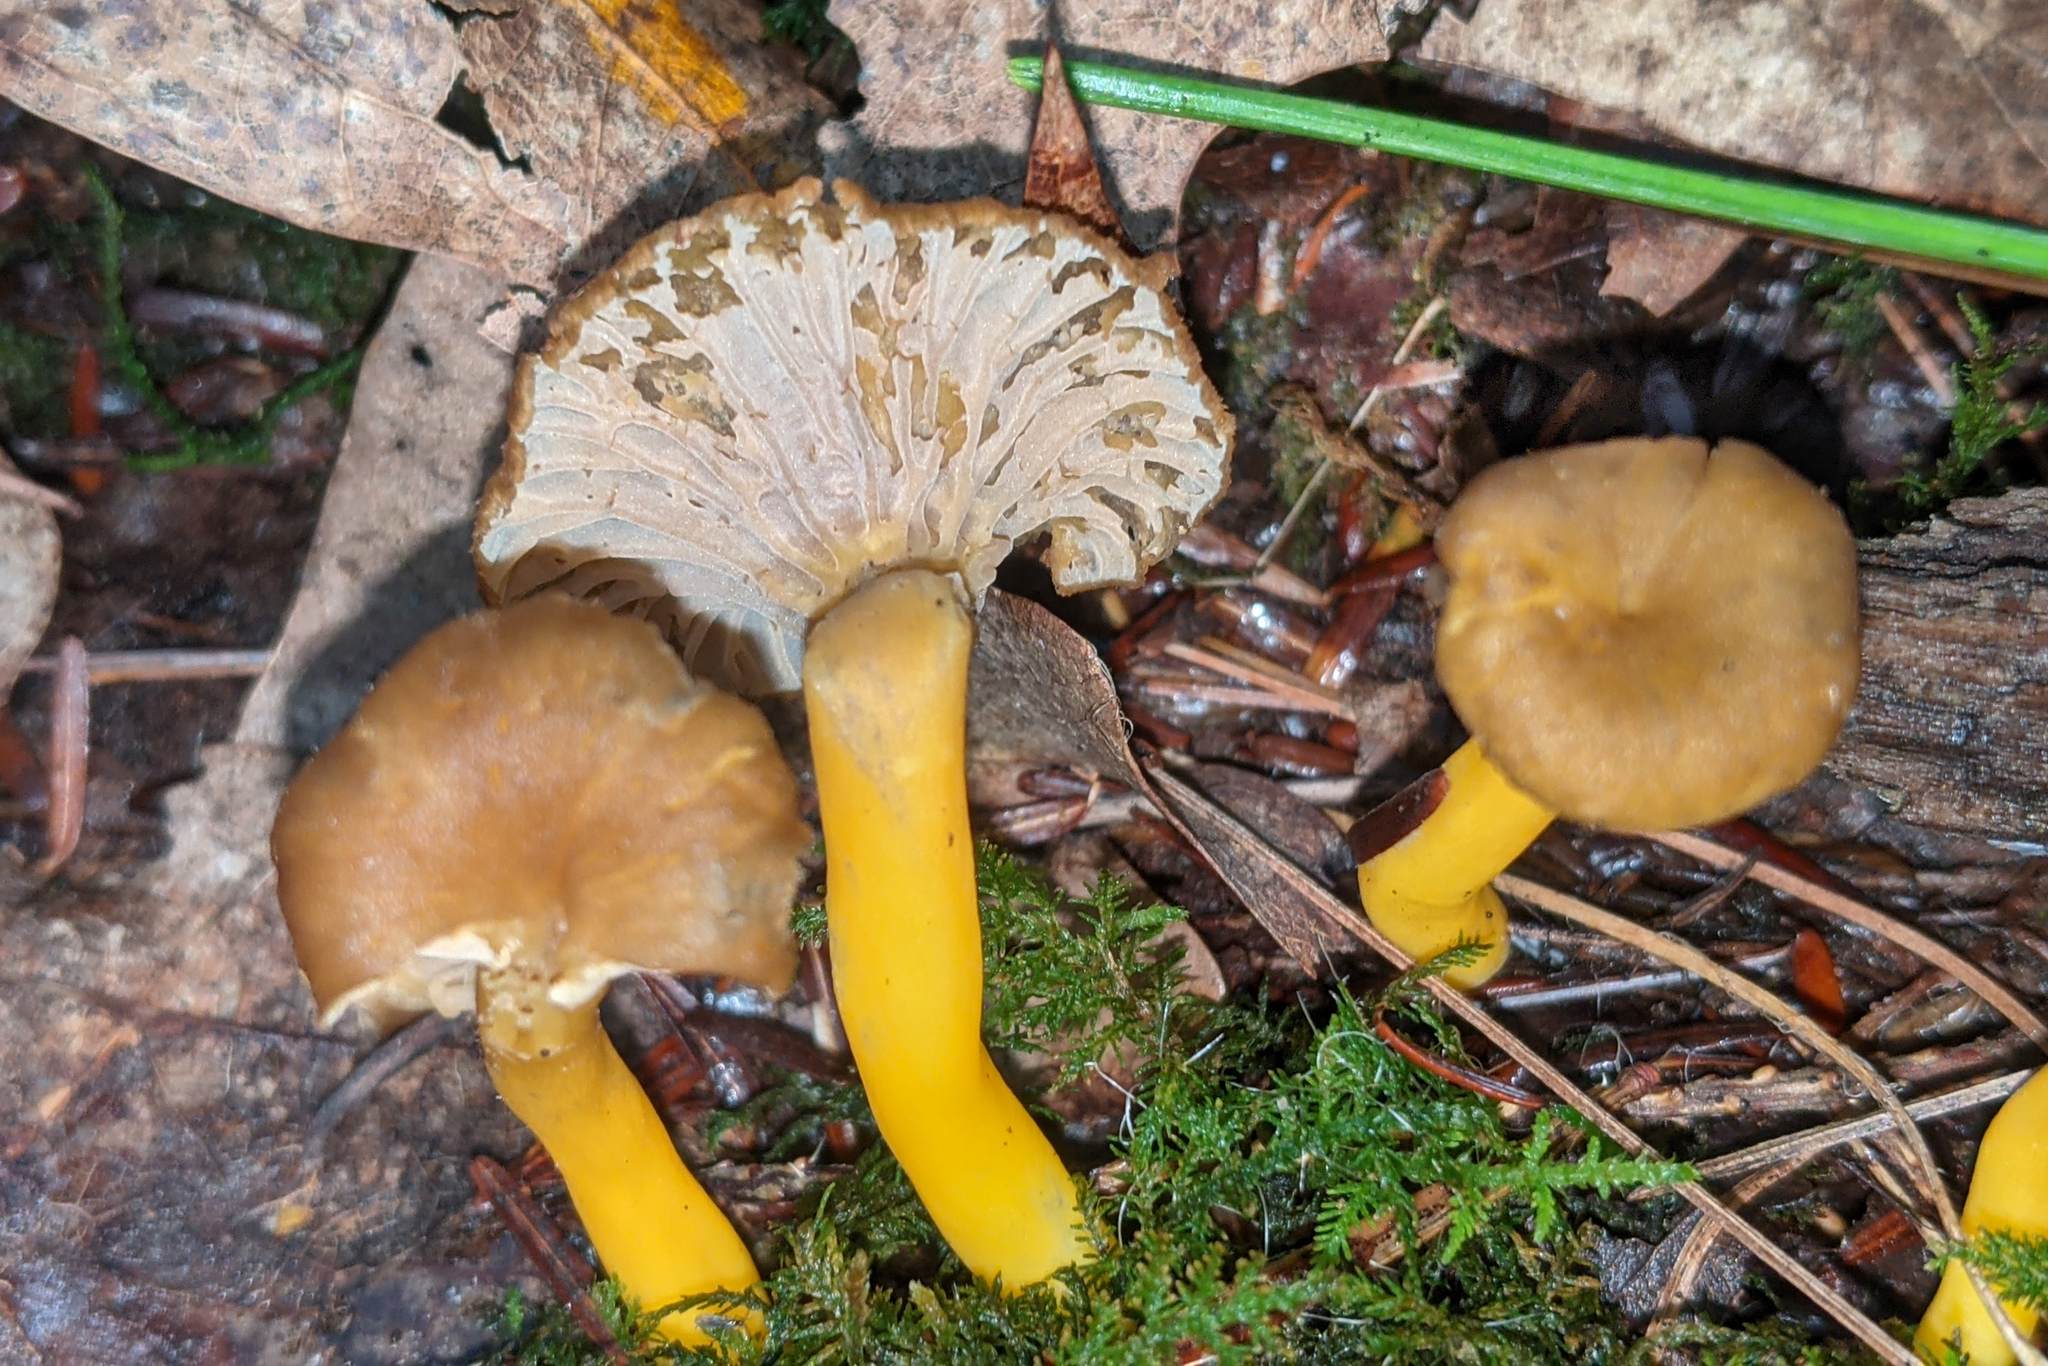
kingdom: Fungi
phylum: Basidiomycota
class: Agaricomycetes
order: Cantharellales
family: Hydnaceae
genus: Craterellus
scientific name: Craterellus tubaeformis
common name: Yellowfoot
